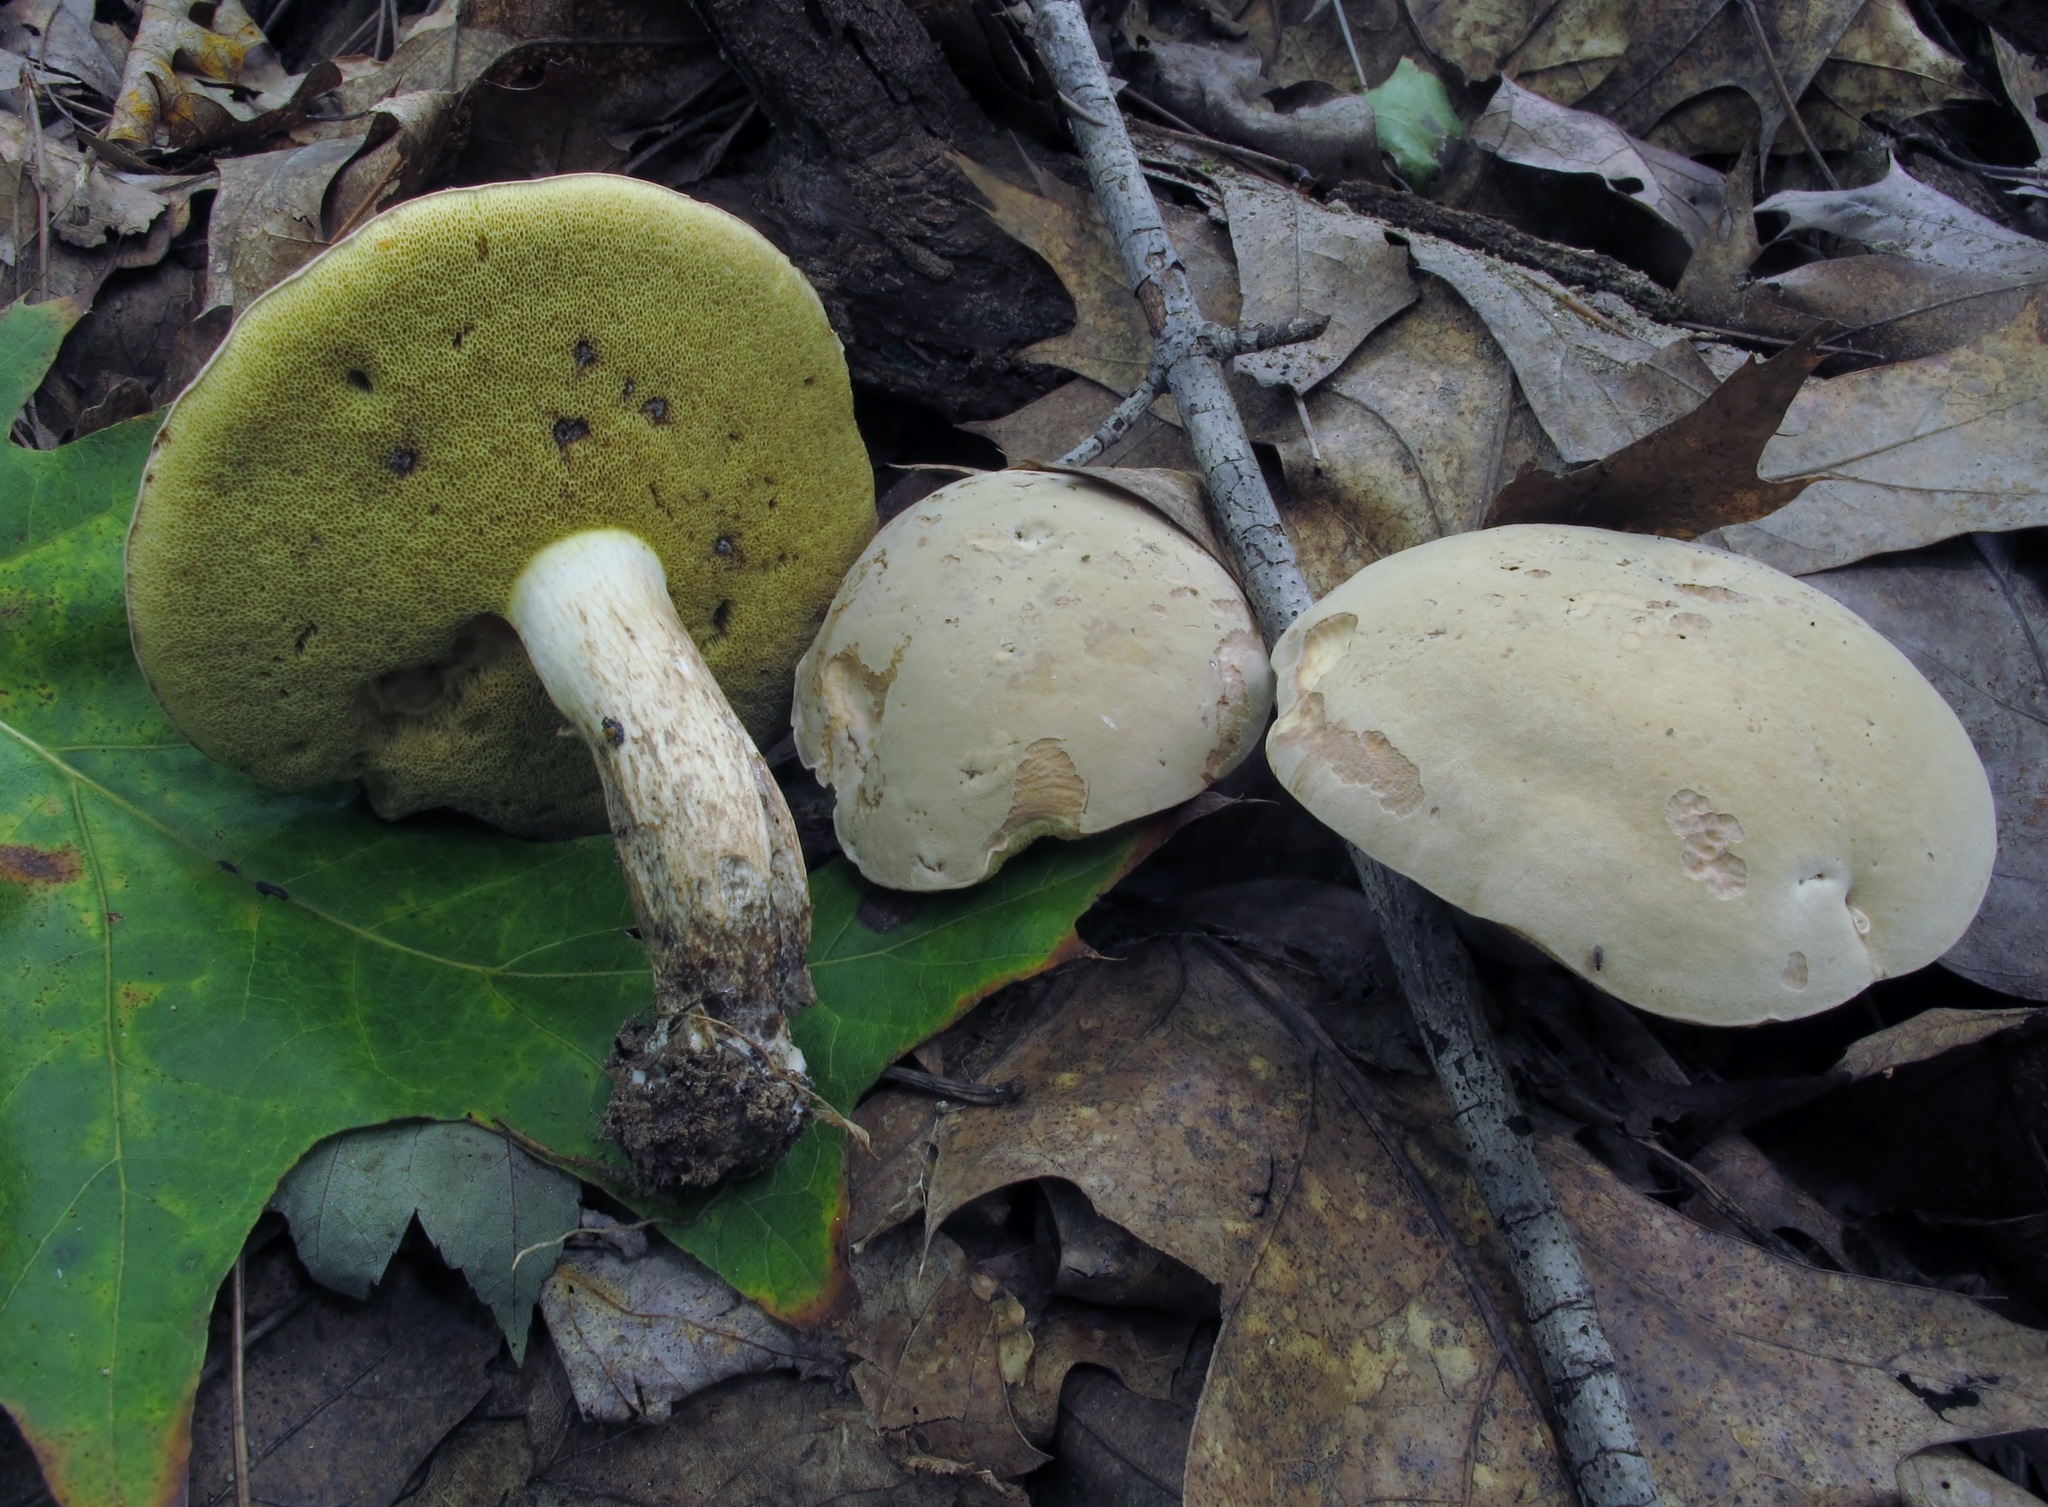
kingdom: Fungi
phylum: Basidiomycota
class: Agaricomycetes
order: Boletales
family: Boletaceae
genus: Imleria
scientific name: Imleria pallida
